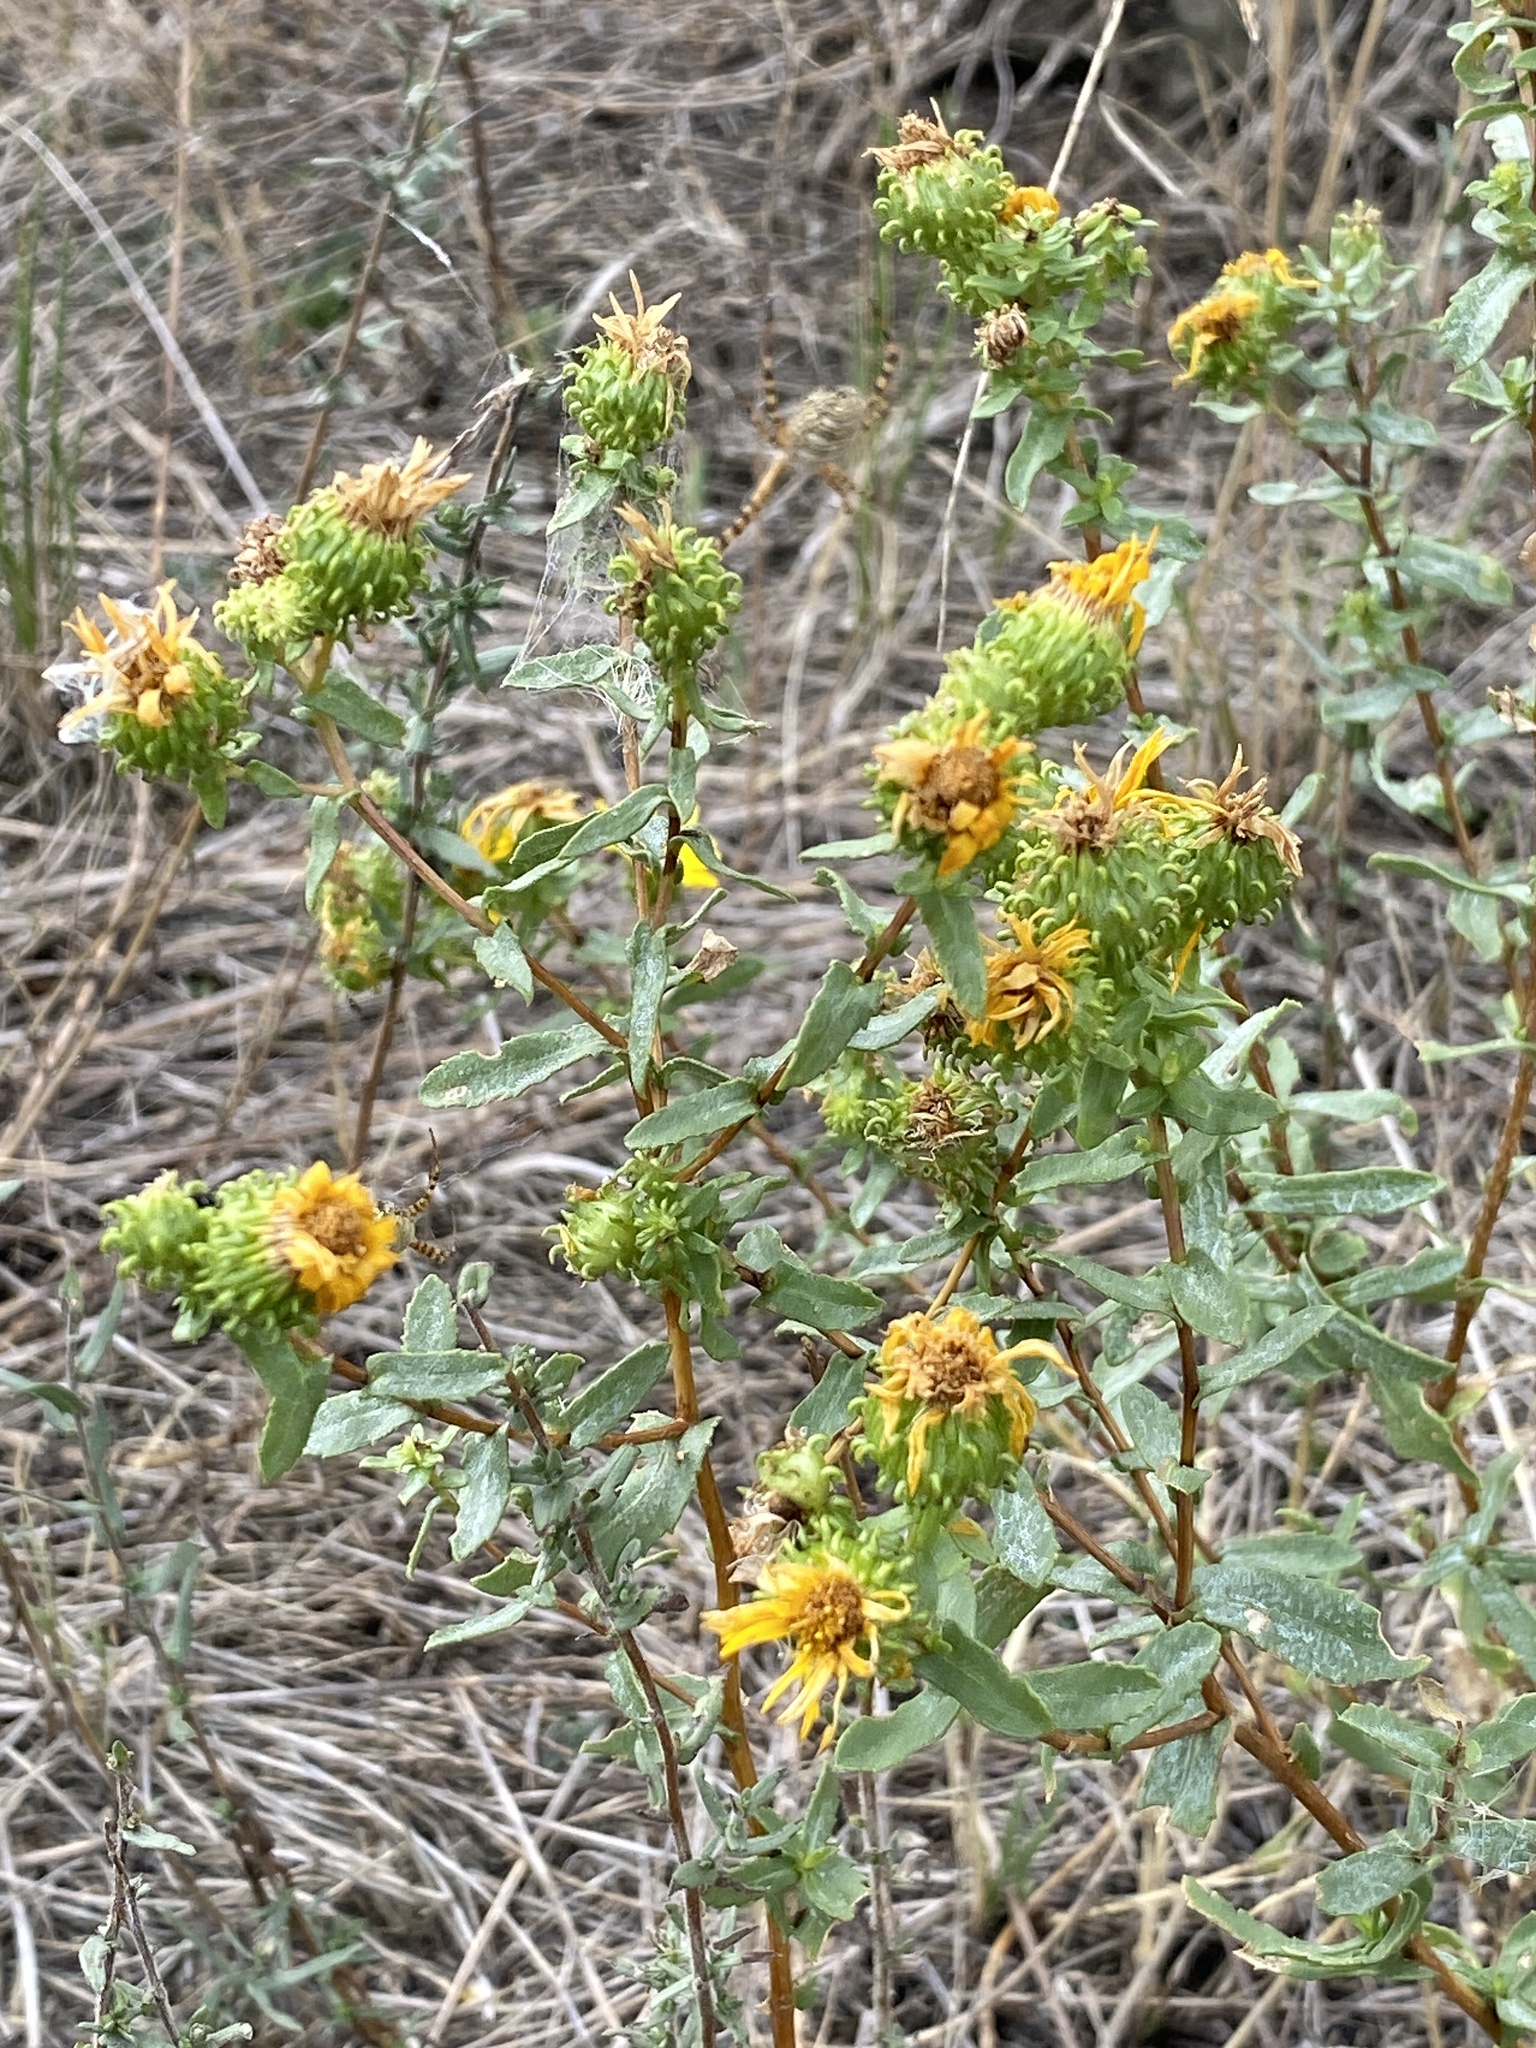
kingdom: Plantae
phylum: Tracheophyta
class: Magnoliopsida
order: Asterales
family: Asteraceae
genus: Grindelia
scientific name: Grindelia squarrosa
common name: Curly-cup gumweed
